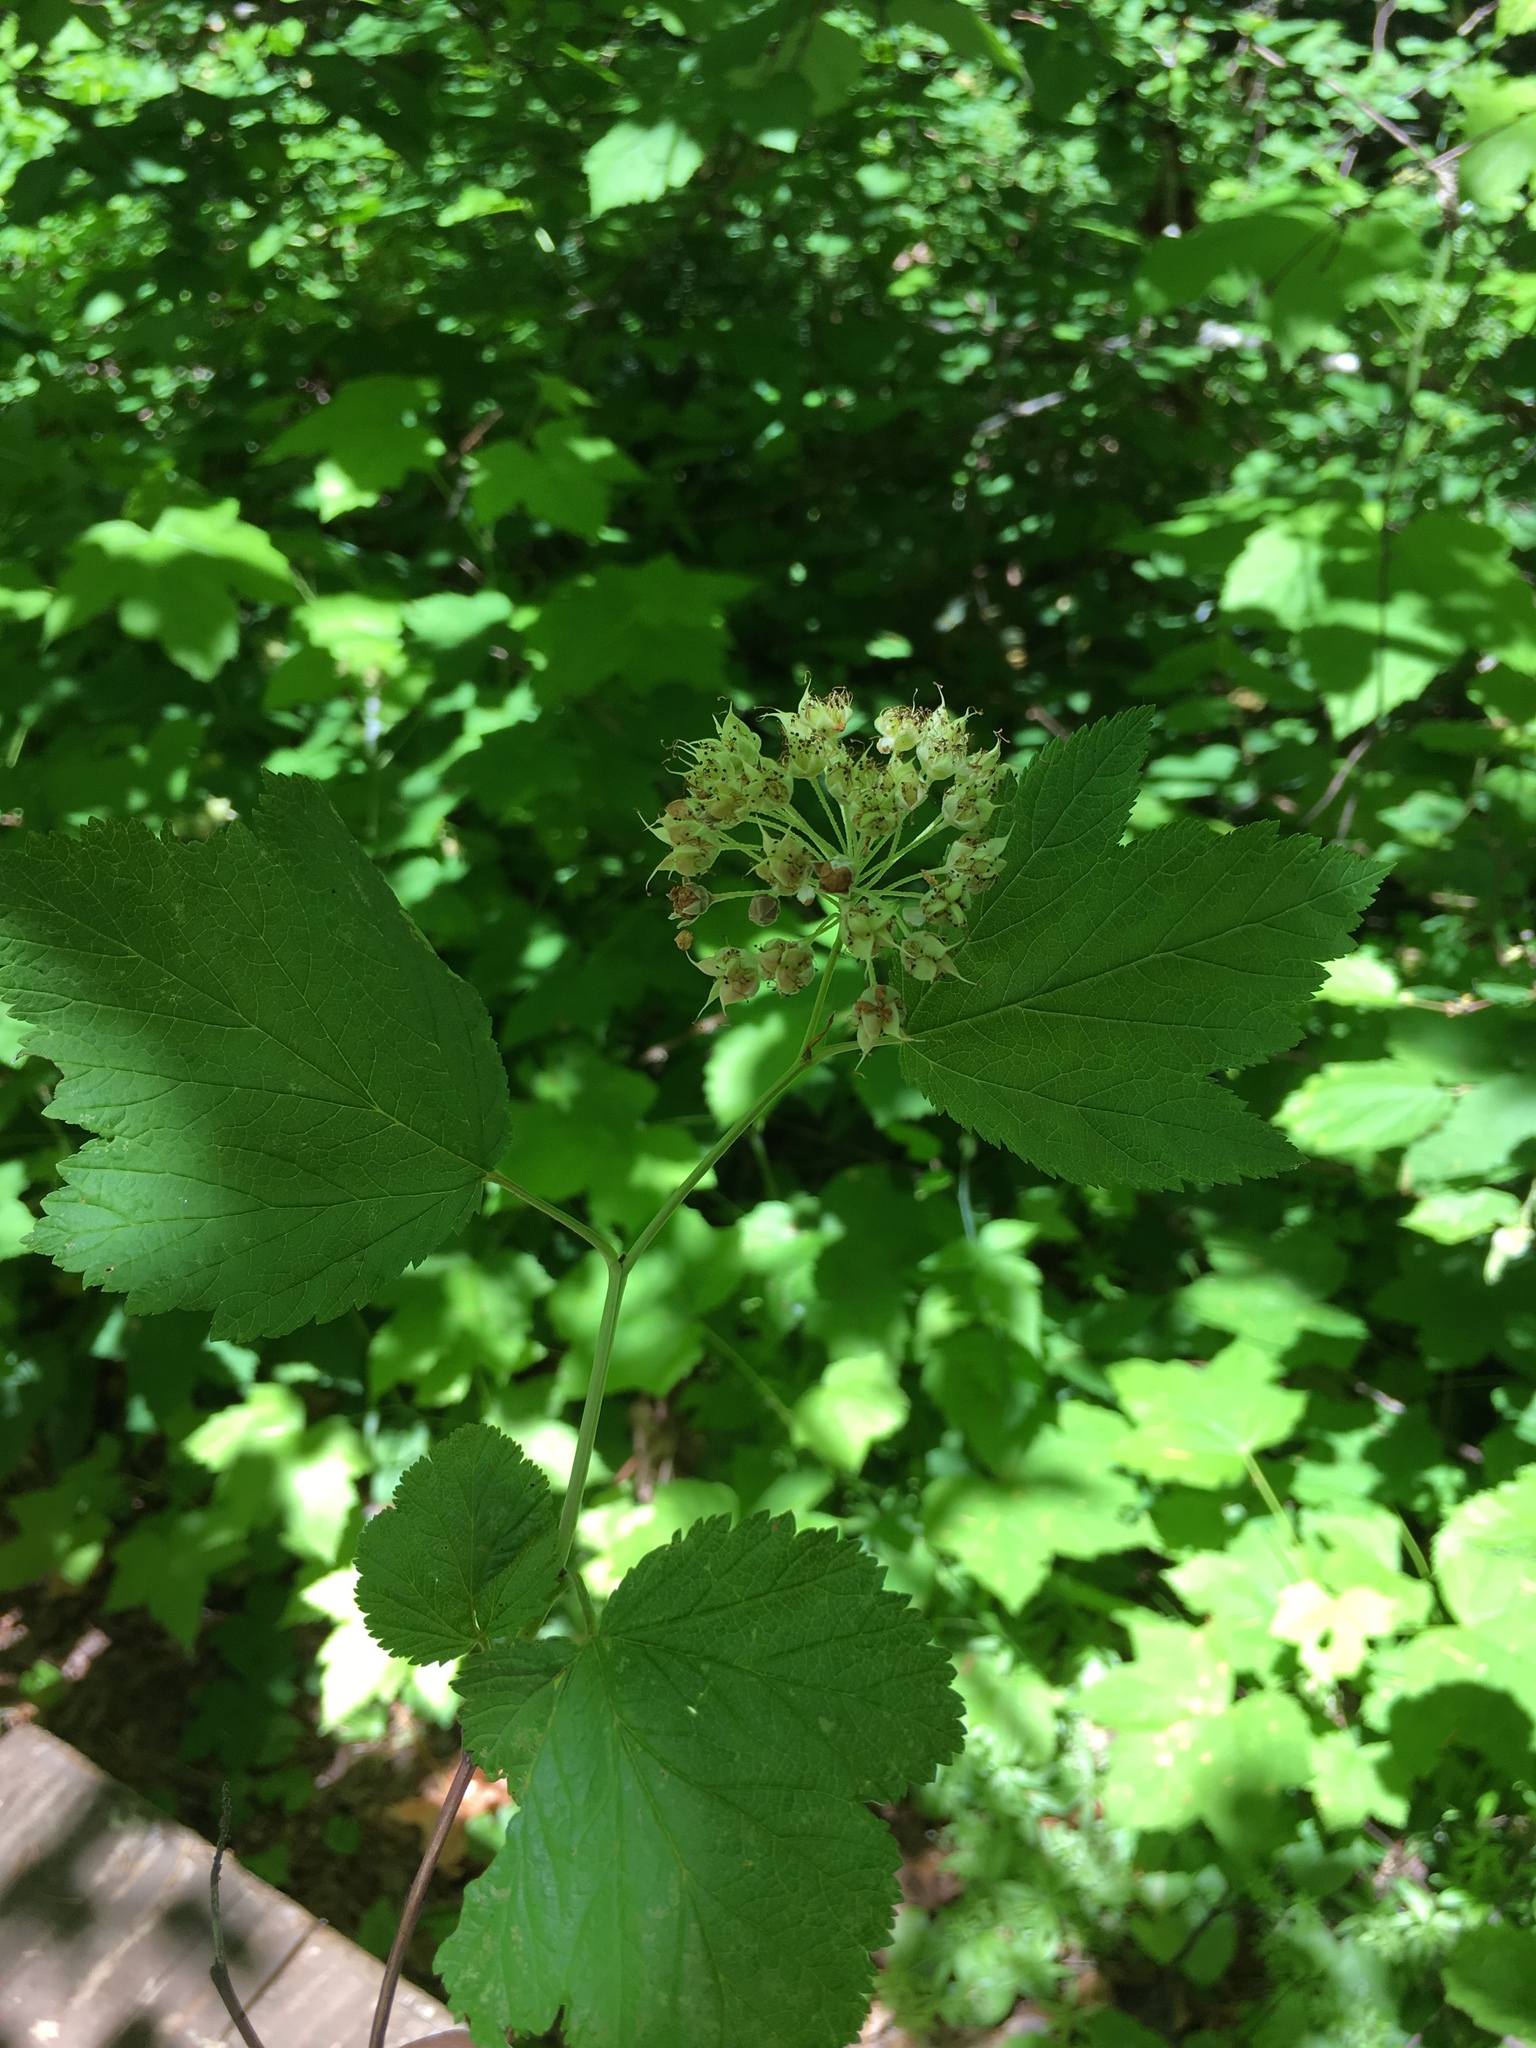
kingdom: Plantae
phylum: Tracheophyta
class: Magnoliopsida
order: Rosales
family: Rosaceae
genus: Physocarpus
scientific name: Physocarpus capitatus
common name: Pacific ninebark
